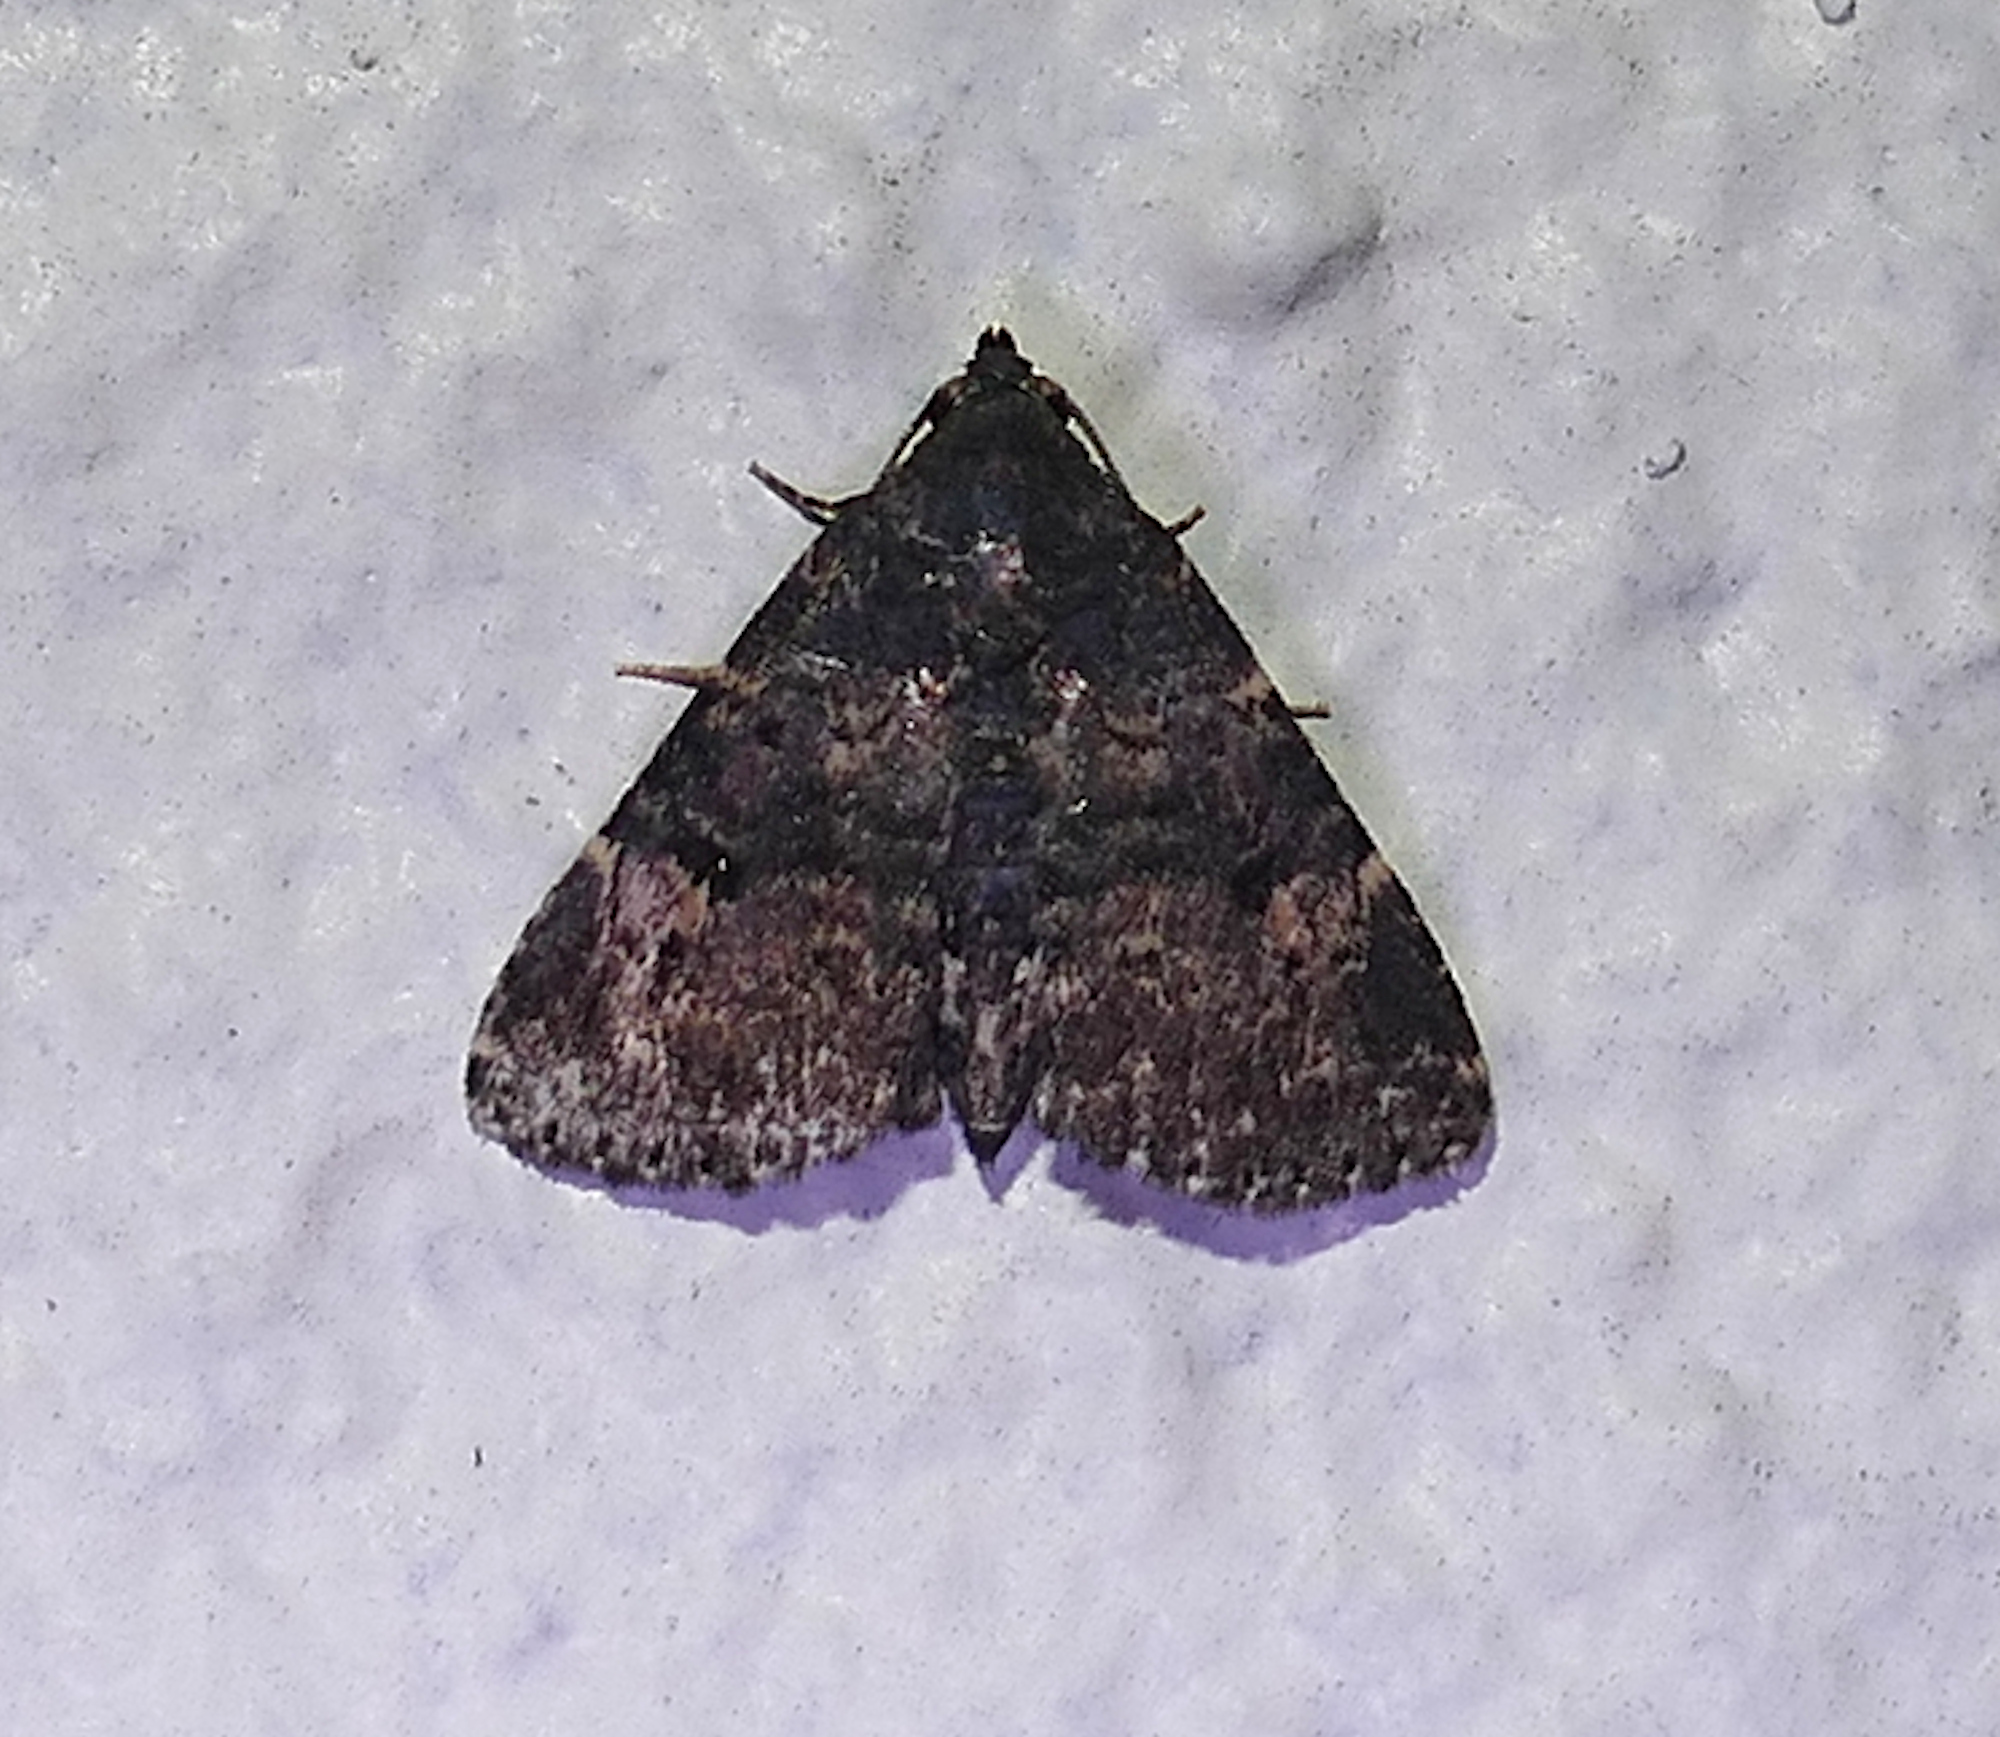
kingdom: Animalia
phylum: Arthropoda
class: Insecta
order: Lepidoptera
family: Erebidae
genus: Metalectra
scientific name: Metalectra diabolica
